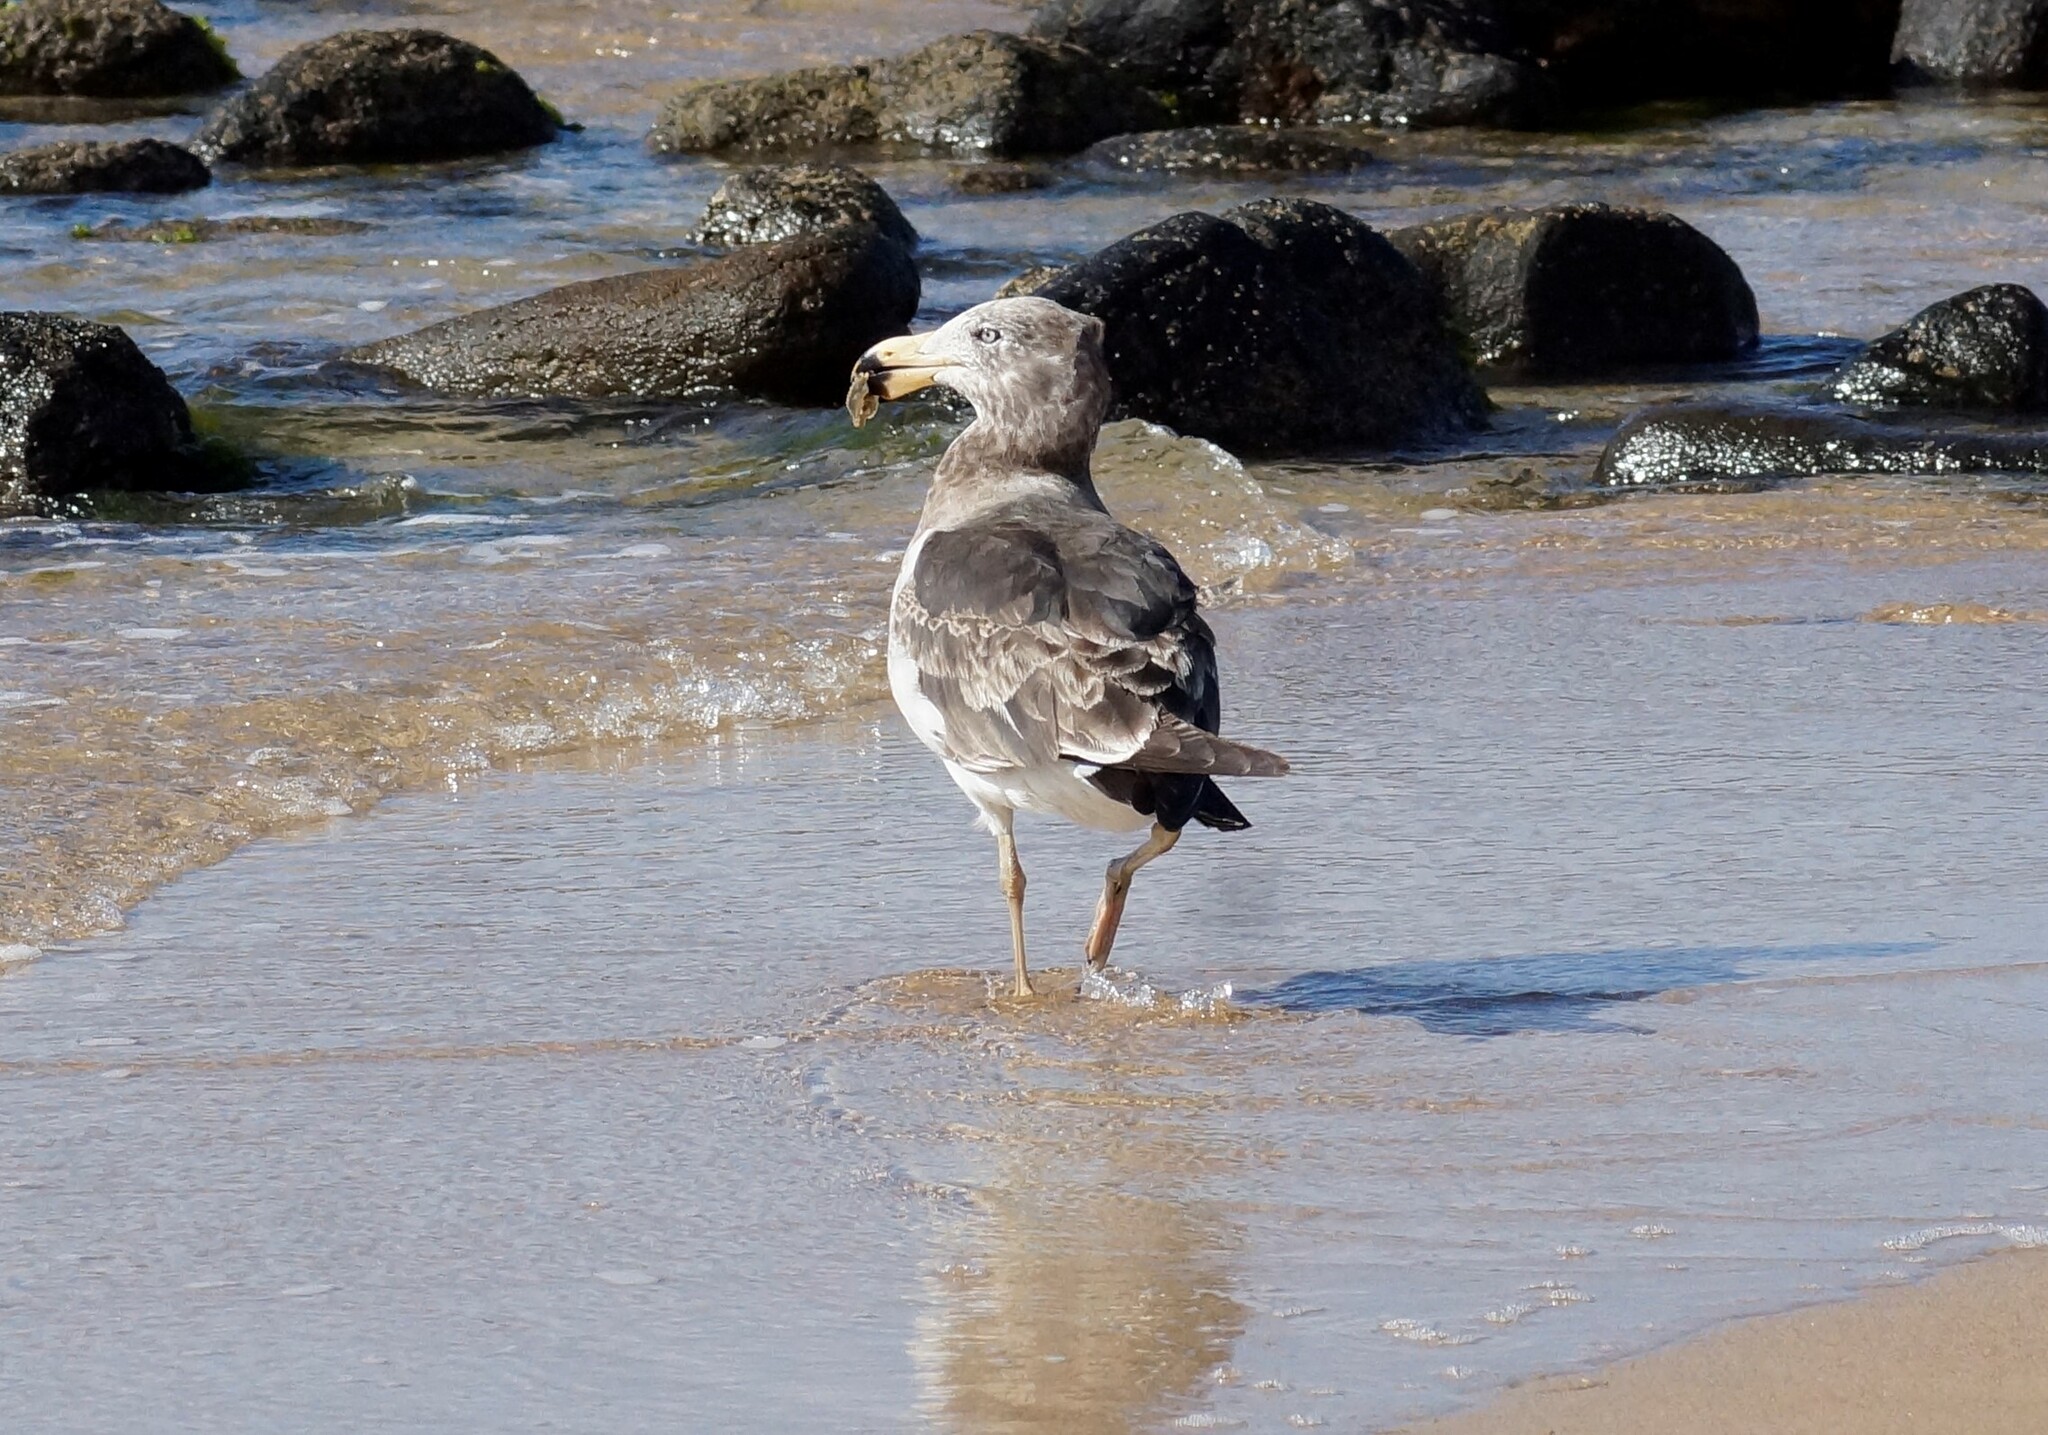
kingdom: Animalia
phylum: Chordata
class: Aves
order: Charadriiformes
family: Laridae
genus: Larus
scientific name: Larus pacificus
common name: Pacific gull
